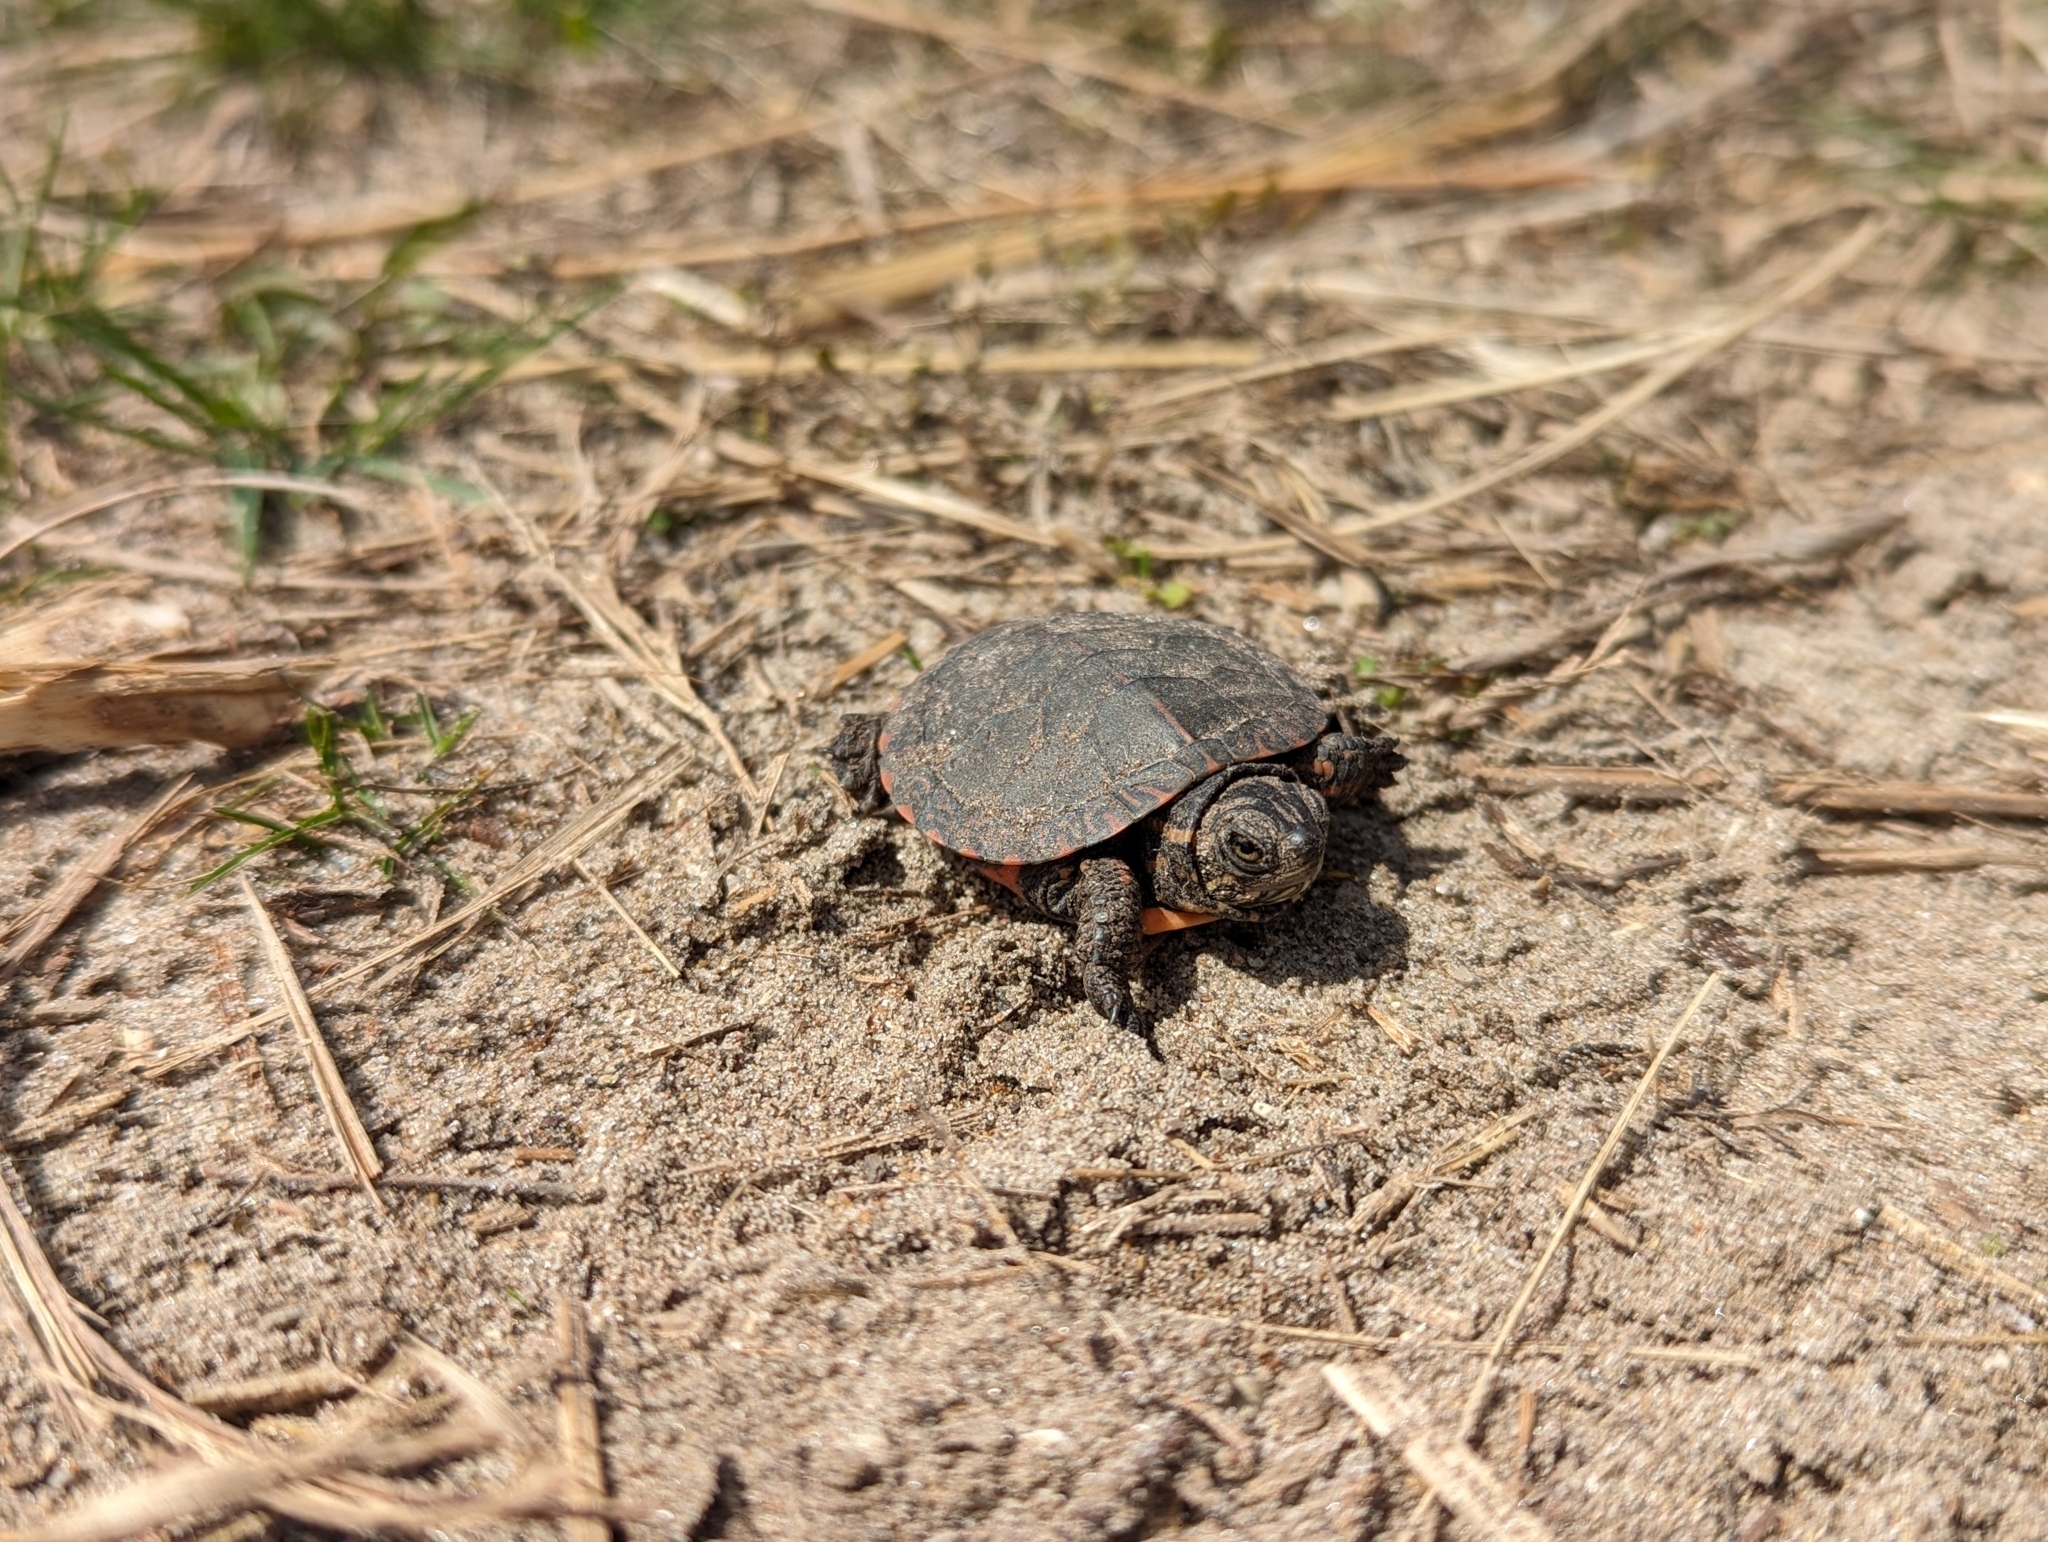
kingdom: Animalia
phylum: Chordata
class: Testudines
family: Emydidae
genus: Chrysemys
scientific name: Chrysemys picta
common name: Painted turtle
